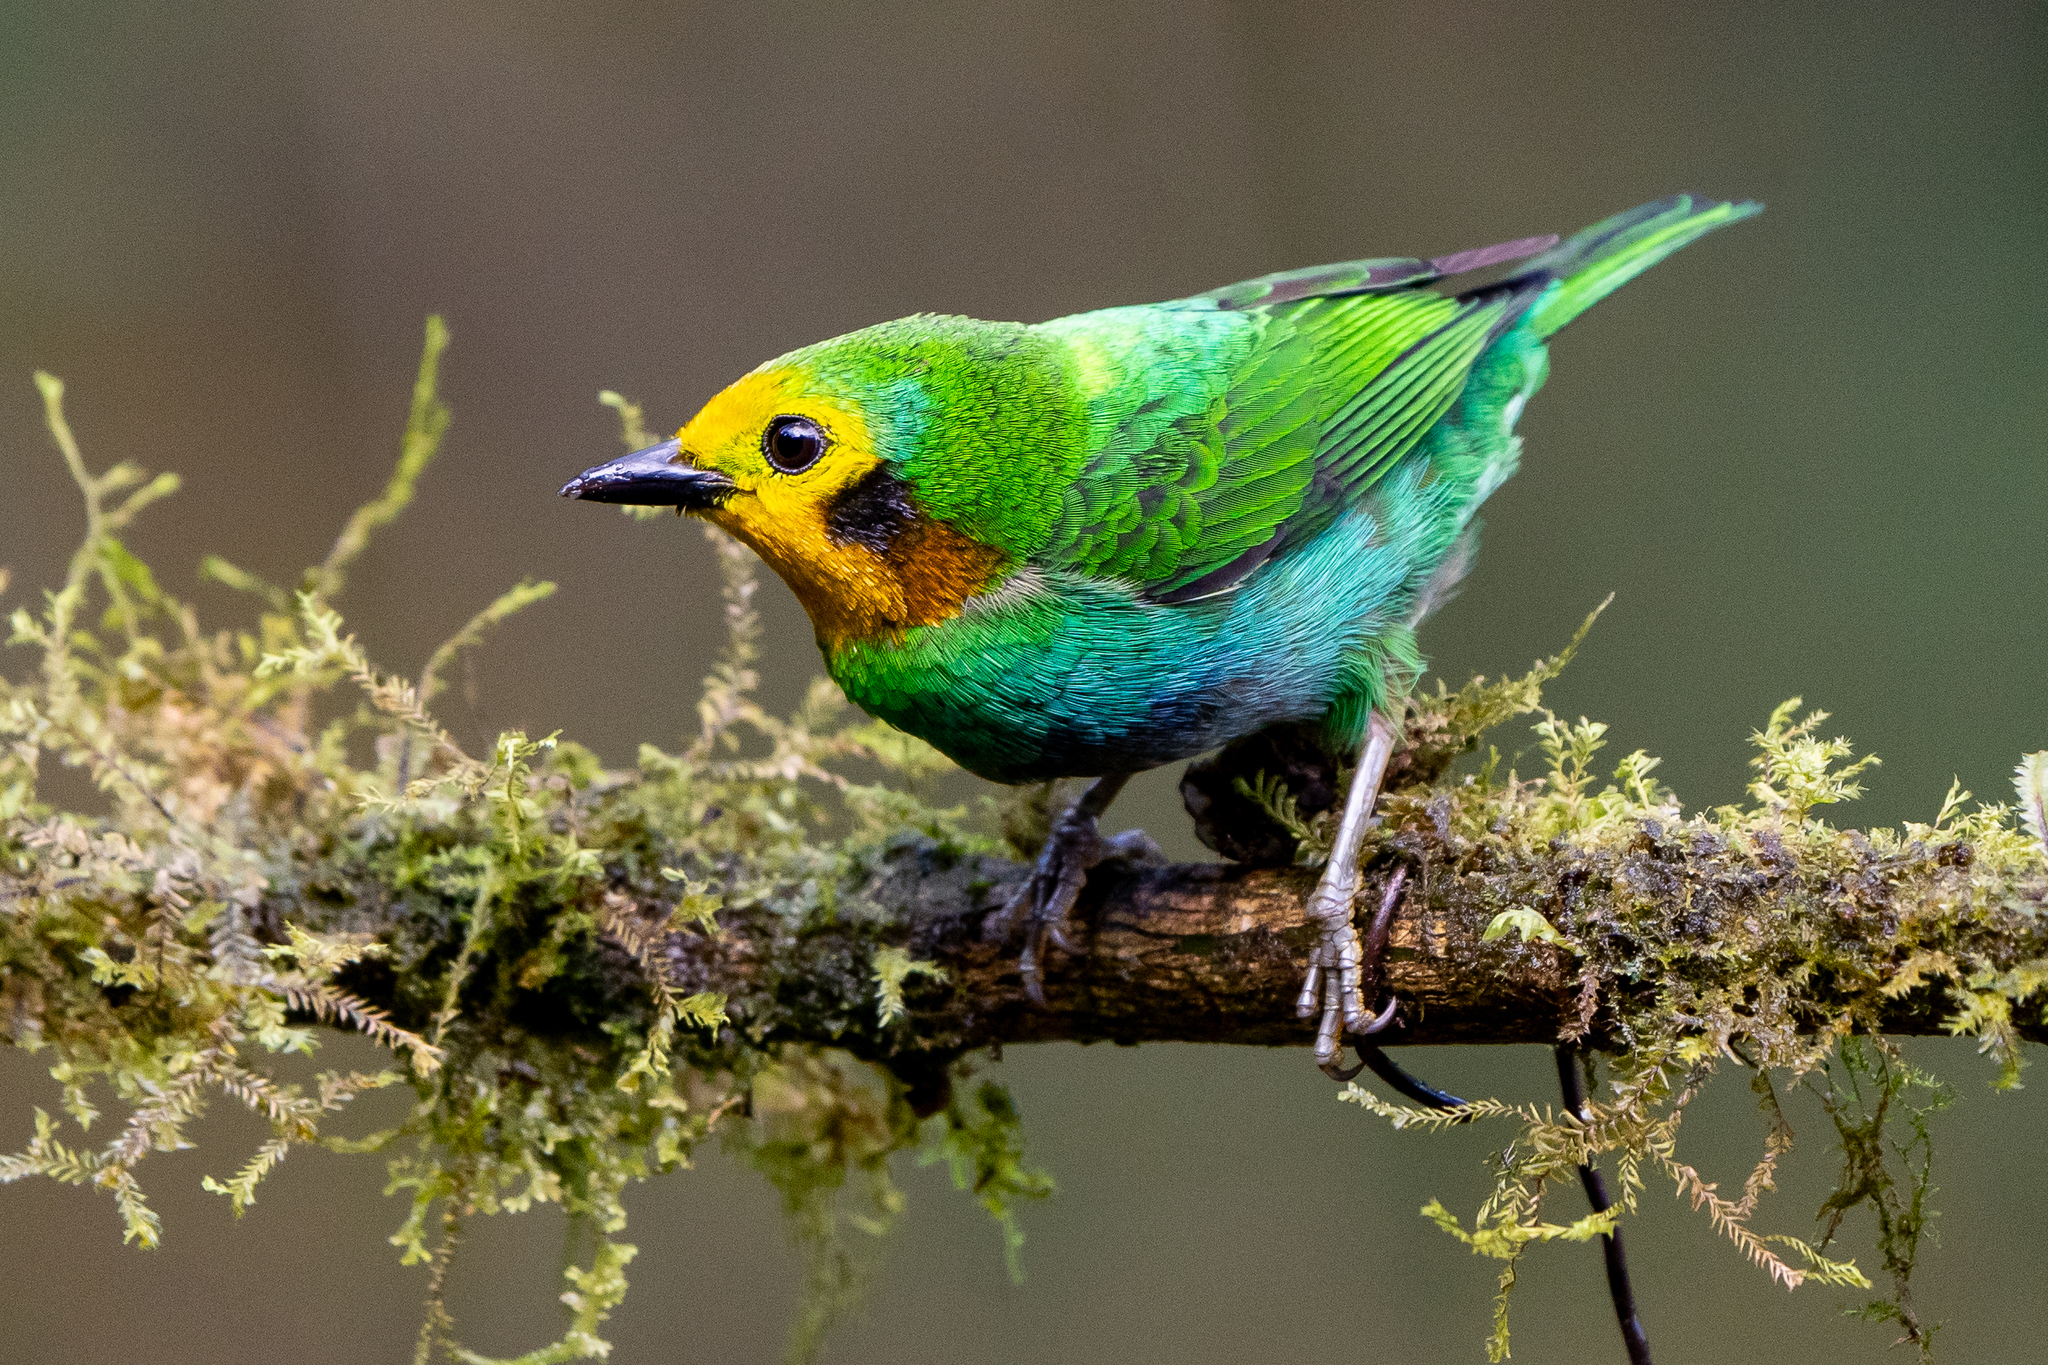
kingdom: Animalia
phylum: Chordata
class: Aves
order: Passeriformes
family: Thraupidae
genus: Chlorochrysa
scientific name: Chlorochrysa nitidissima
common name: Multicolored tanager
